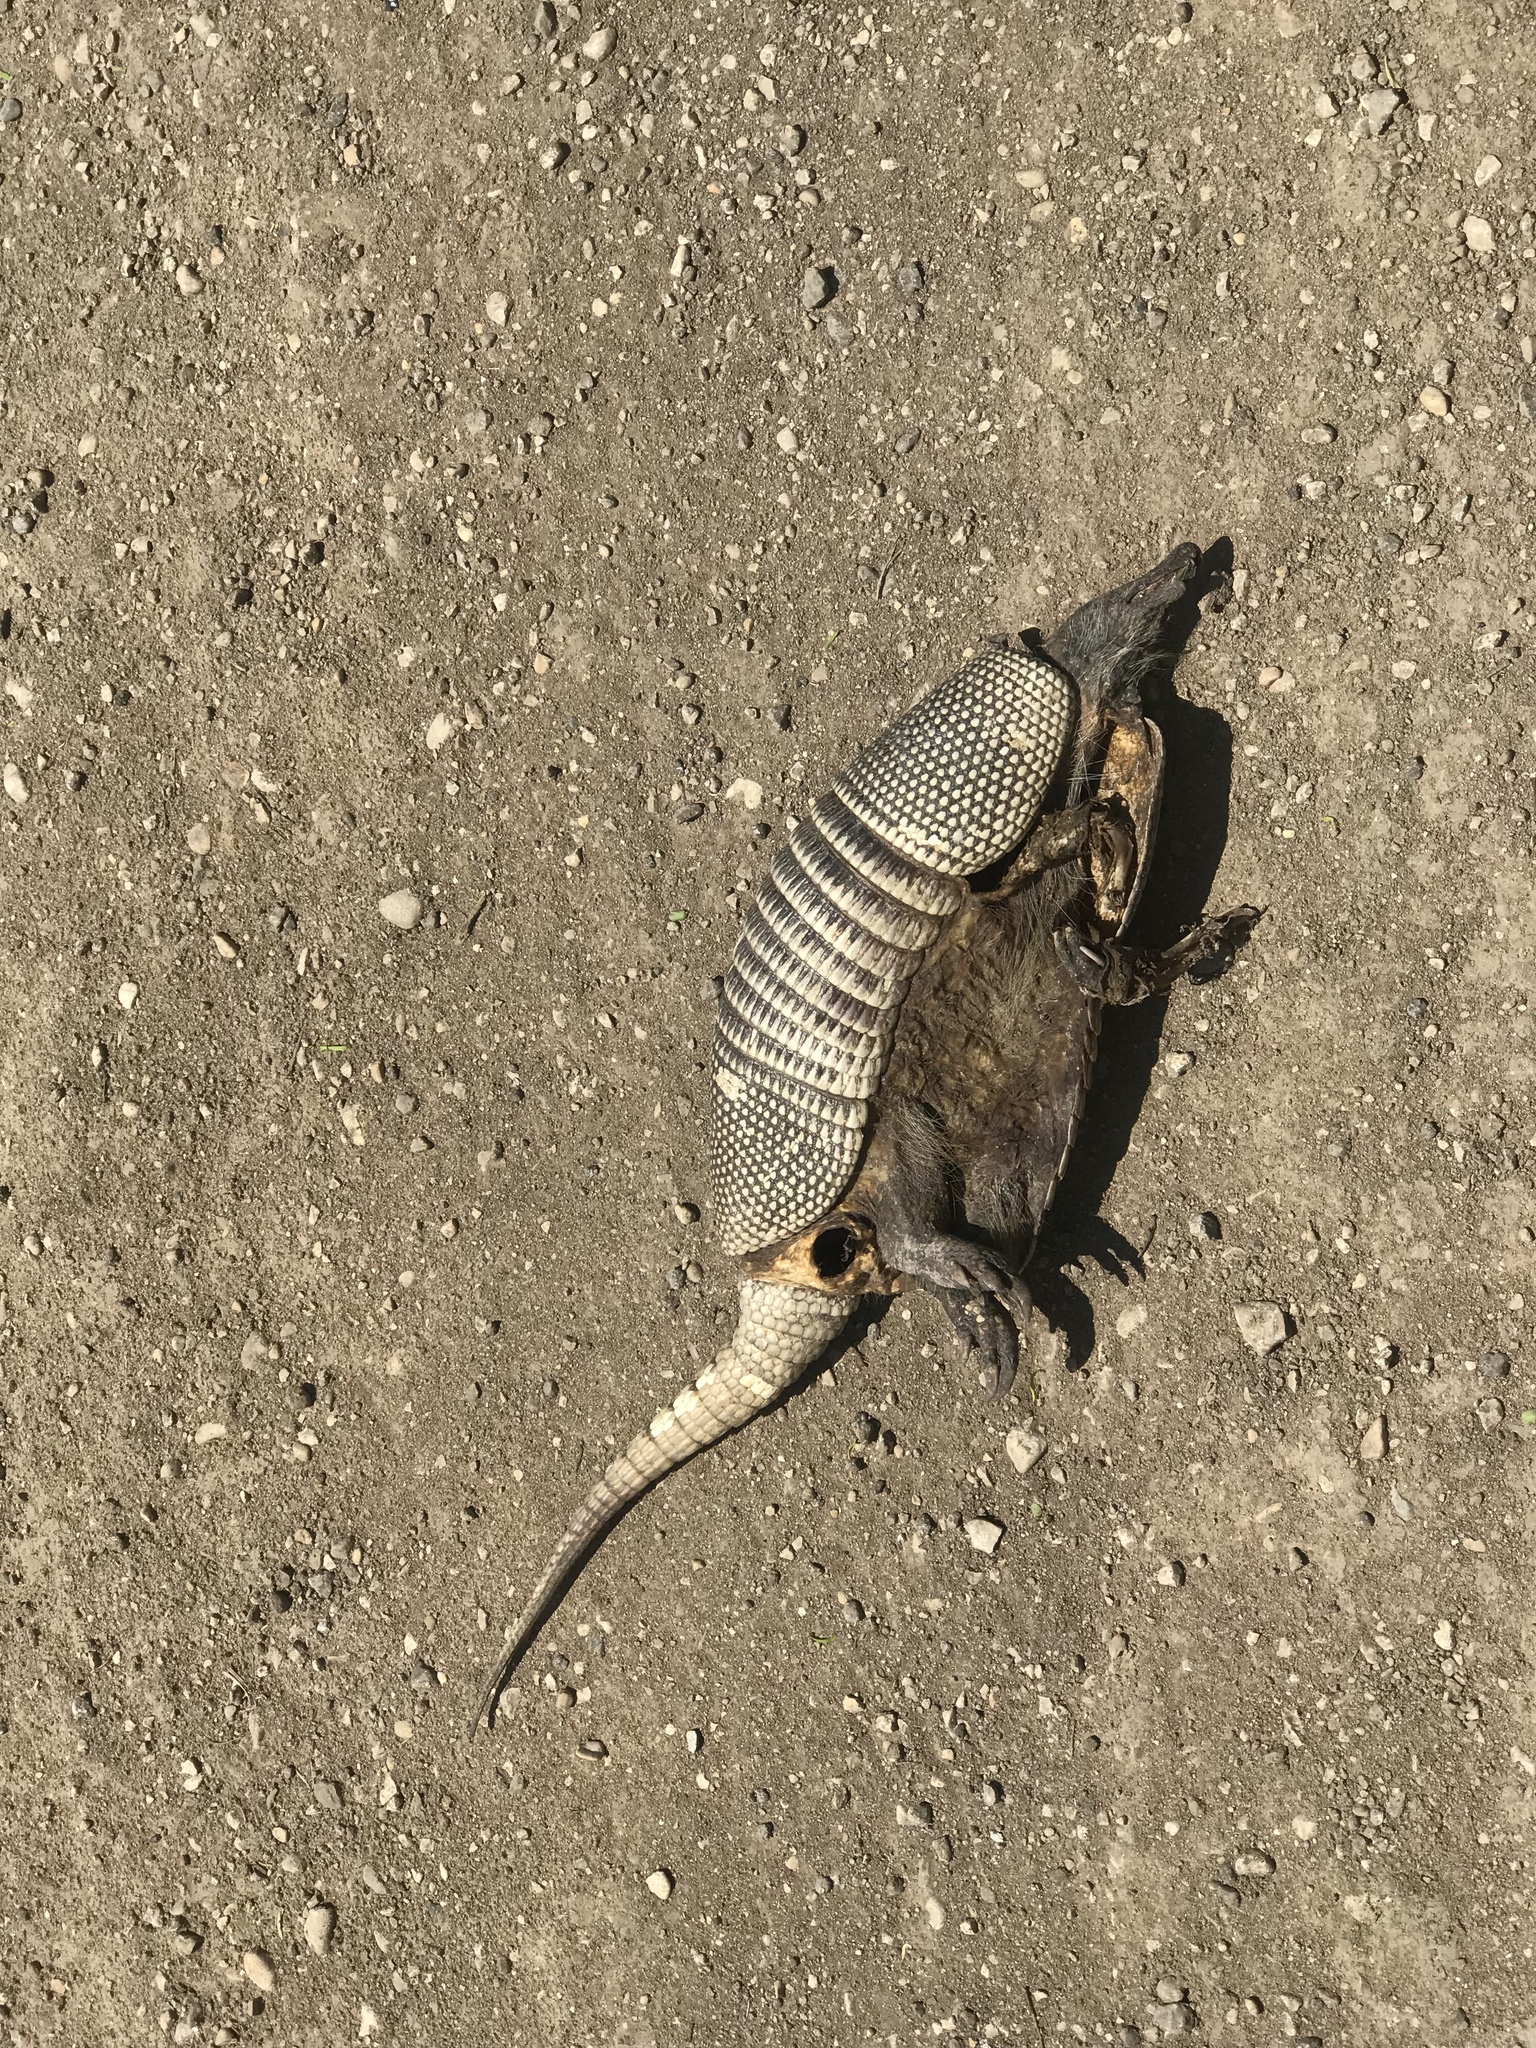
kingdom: Animalia
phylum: Chordata
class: Mammalia
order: Cingulata
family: Dasypodidae
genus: Dasypus
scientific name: Dasypus novemcinctus
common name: Nine-banded armadillo
